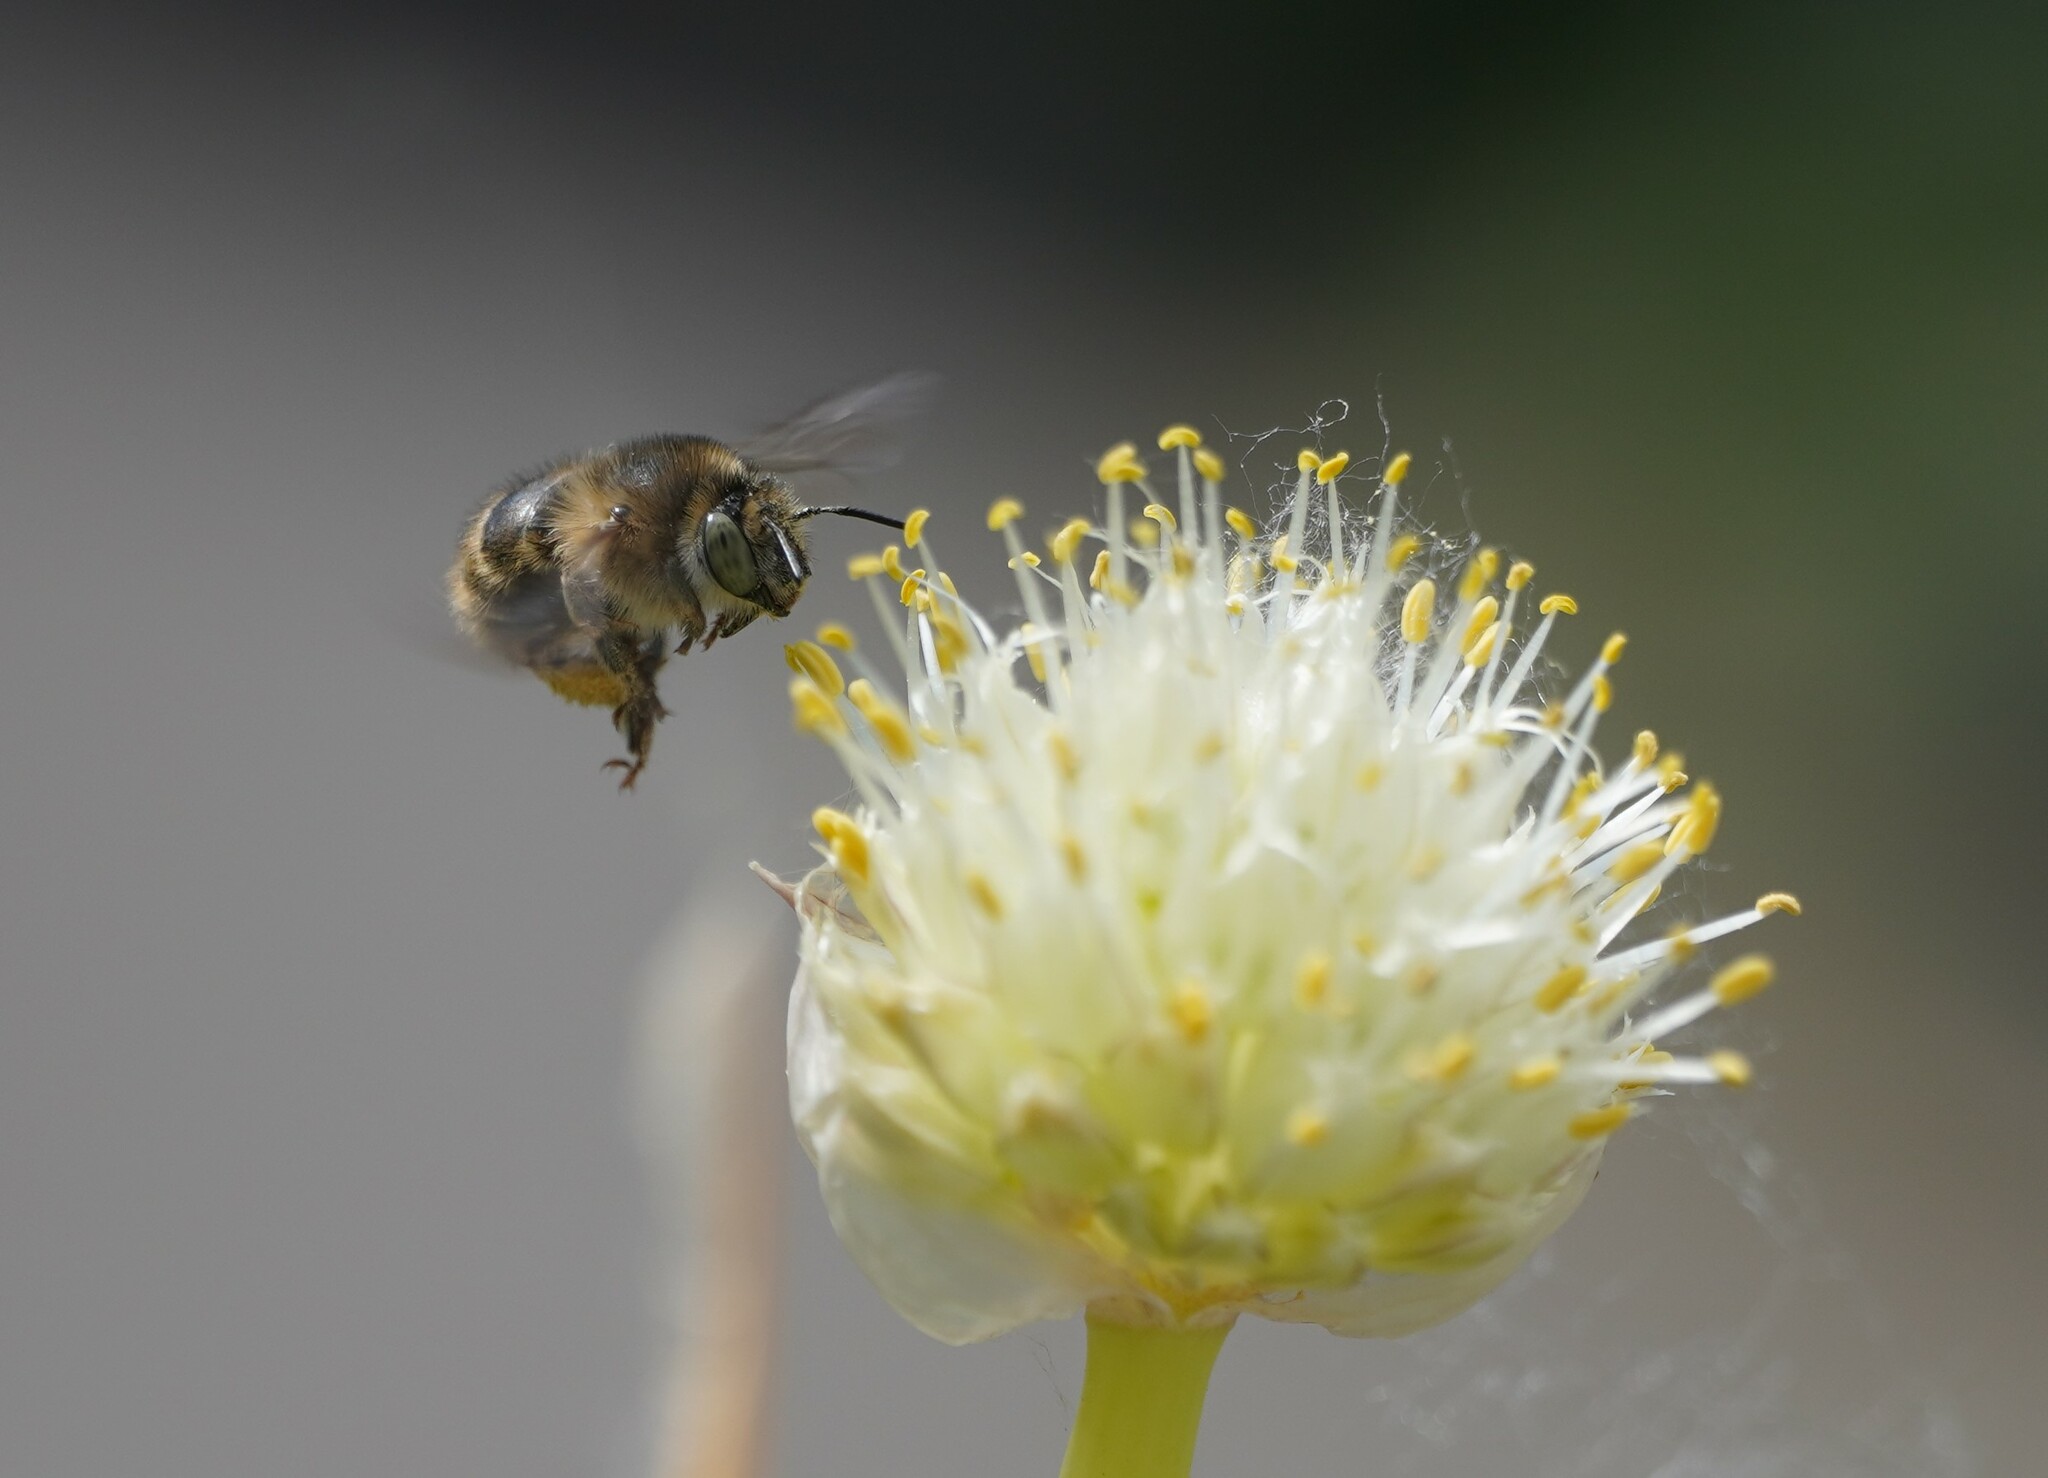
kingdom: Animalia
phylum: Arthropoda
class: Insecta
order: Hymenoptera
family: Apidae
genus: Anthophora
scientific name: Anthophora quadrimaculata
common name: Four-banded flower bee
